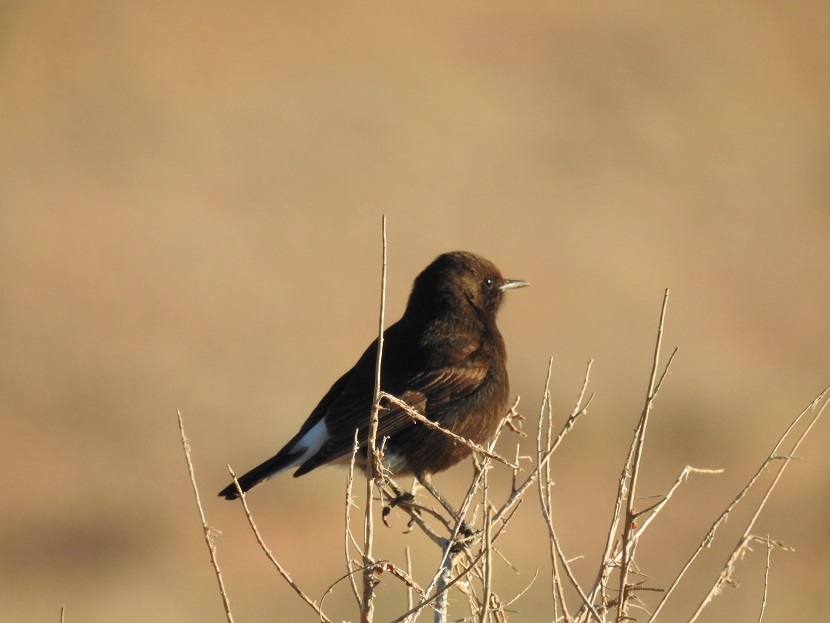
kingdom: Animalia
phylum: Chordata
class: Aves
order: Passeriformes
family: Muscicapidae
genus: Oenanthe
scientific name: Oenanthe leucura
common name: Black wheatear
